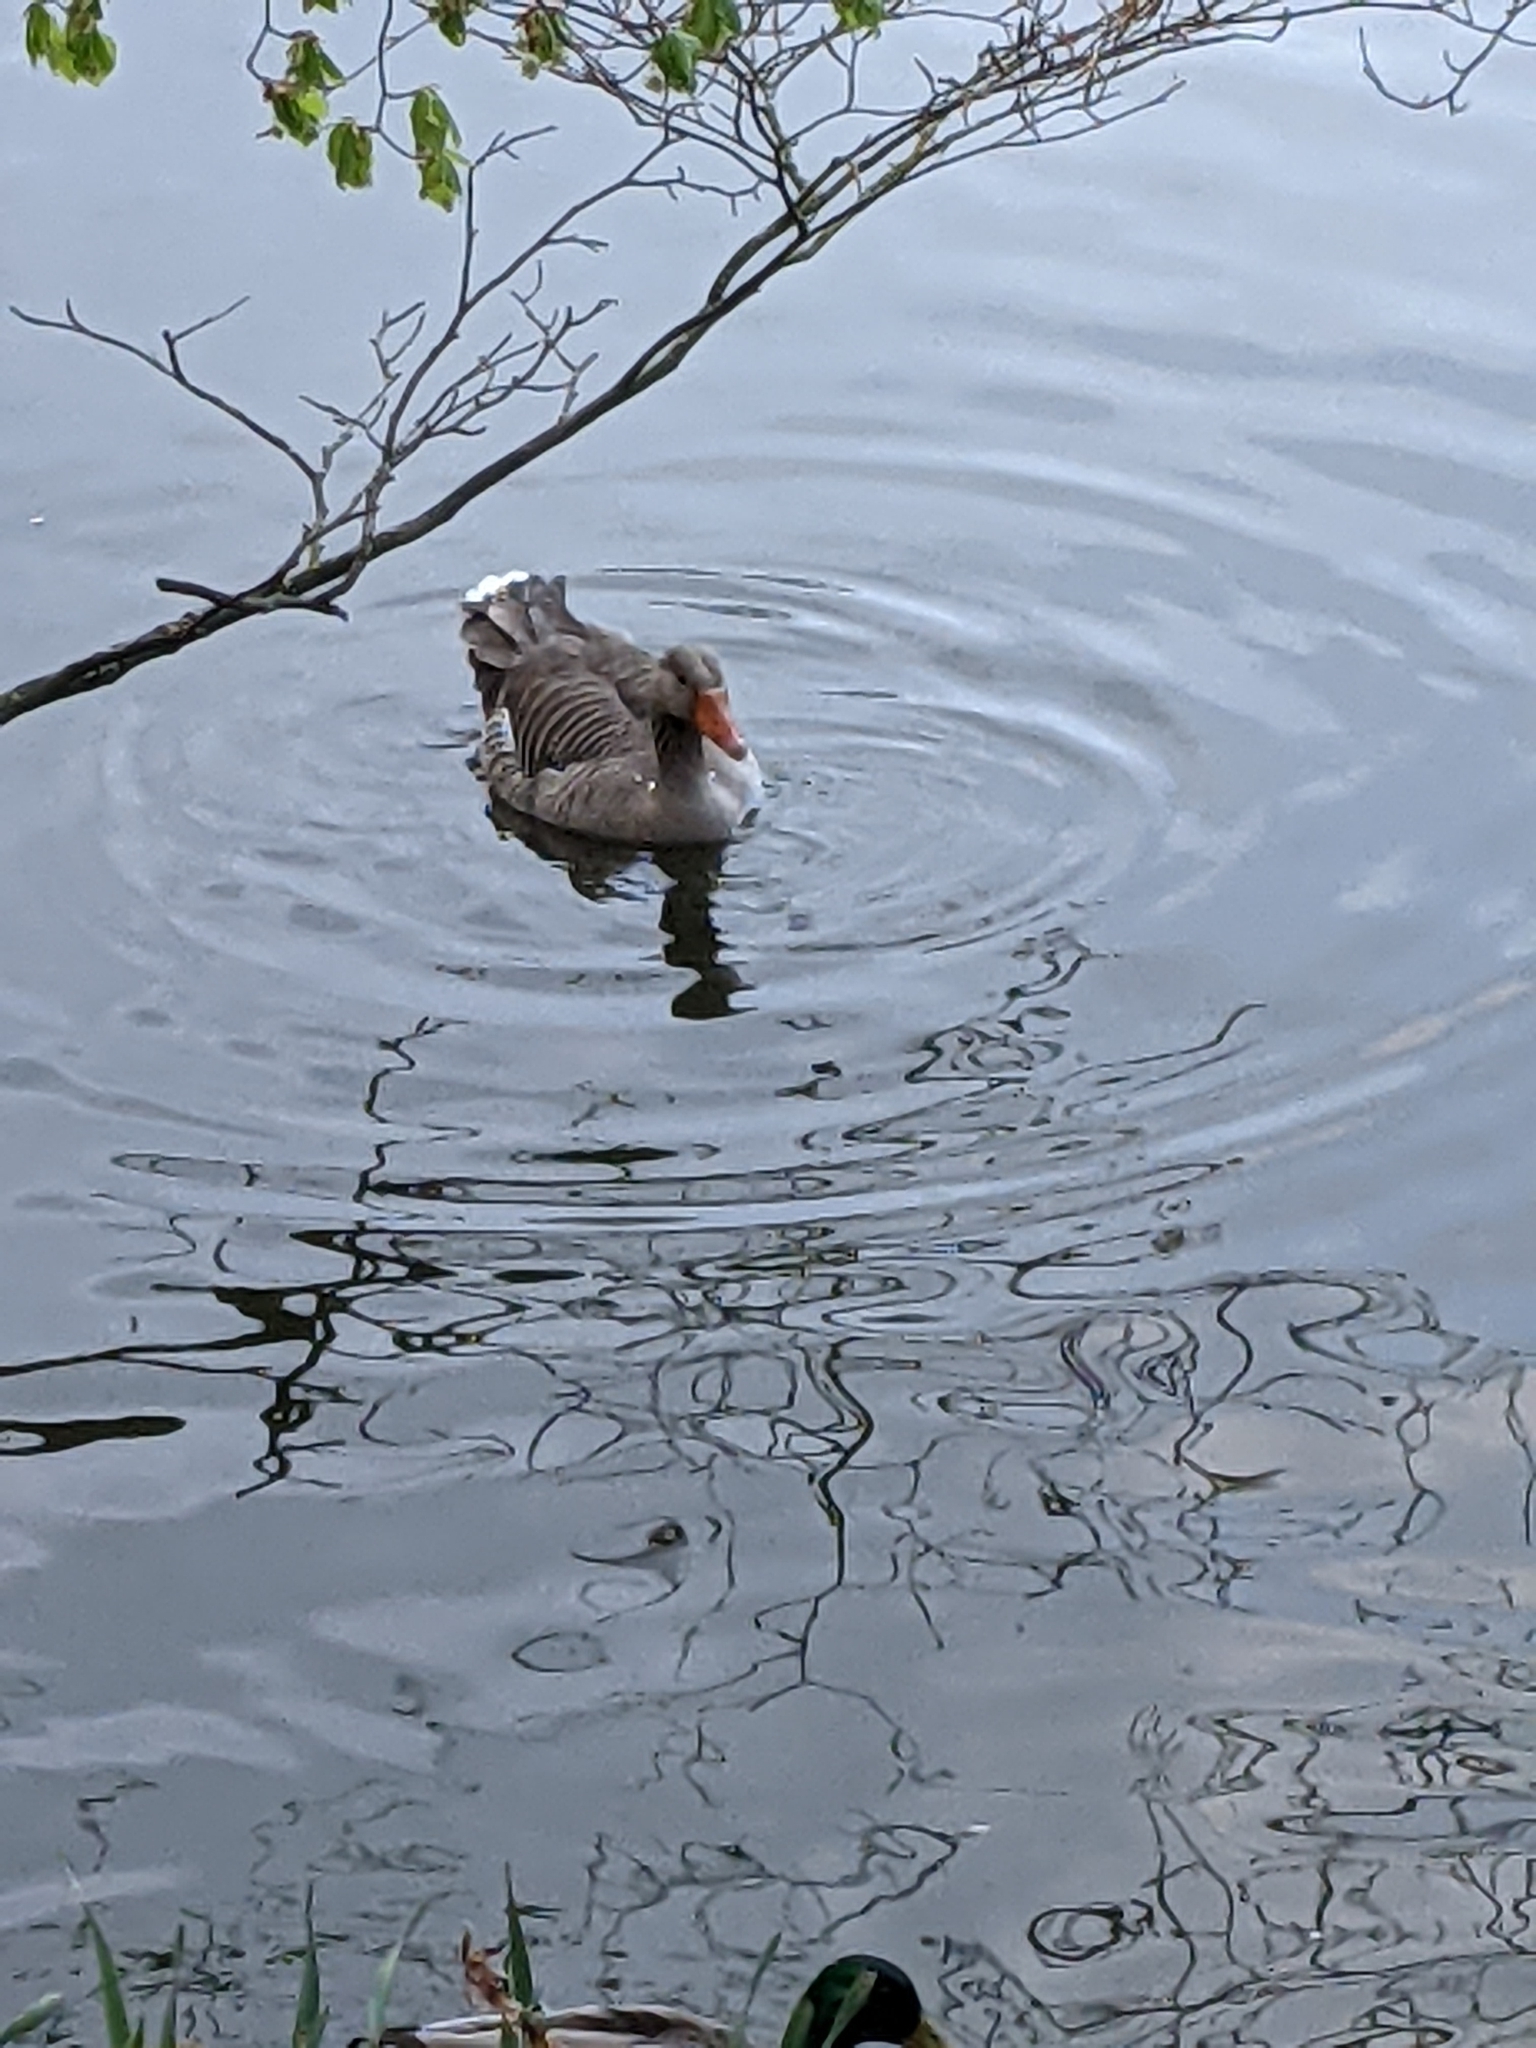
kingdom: Animalia
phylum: Chordata
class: Aves
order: Anseriformes
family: Anatidae
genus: Anser
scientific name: Anser anser
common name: Greylag goose
